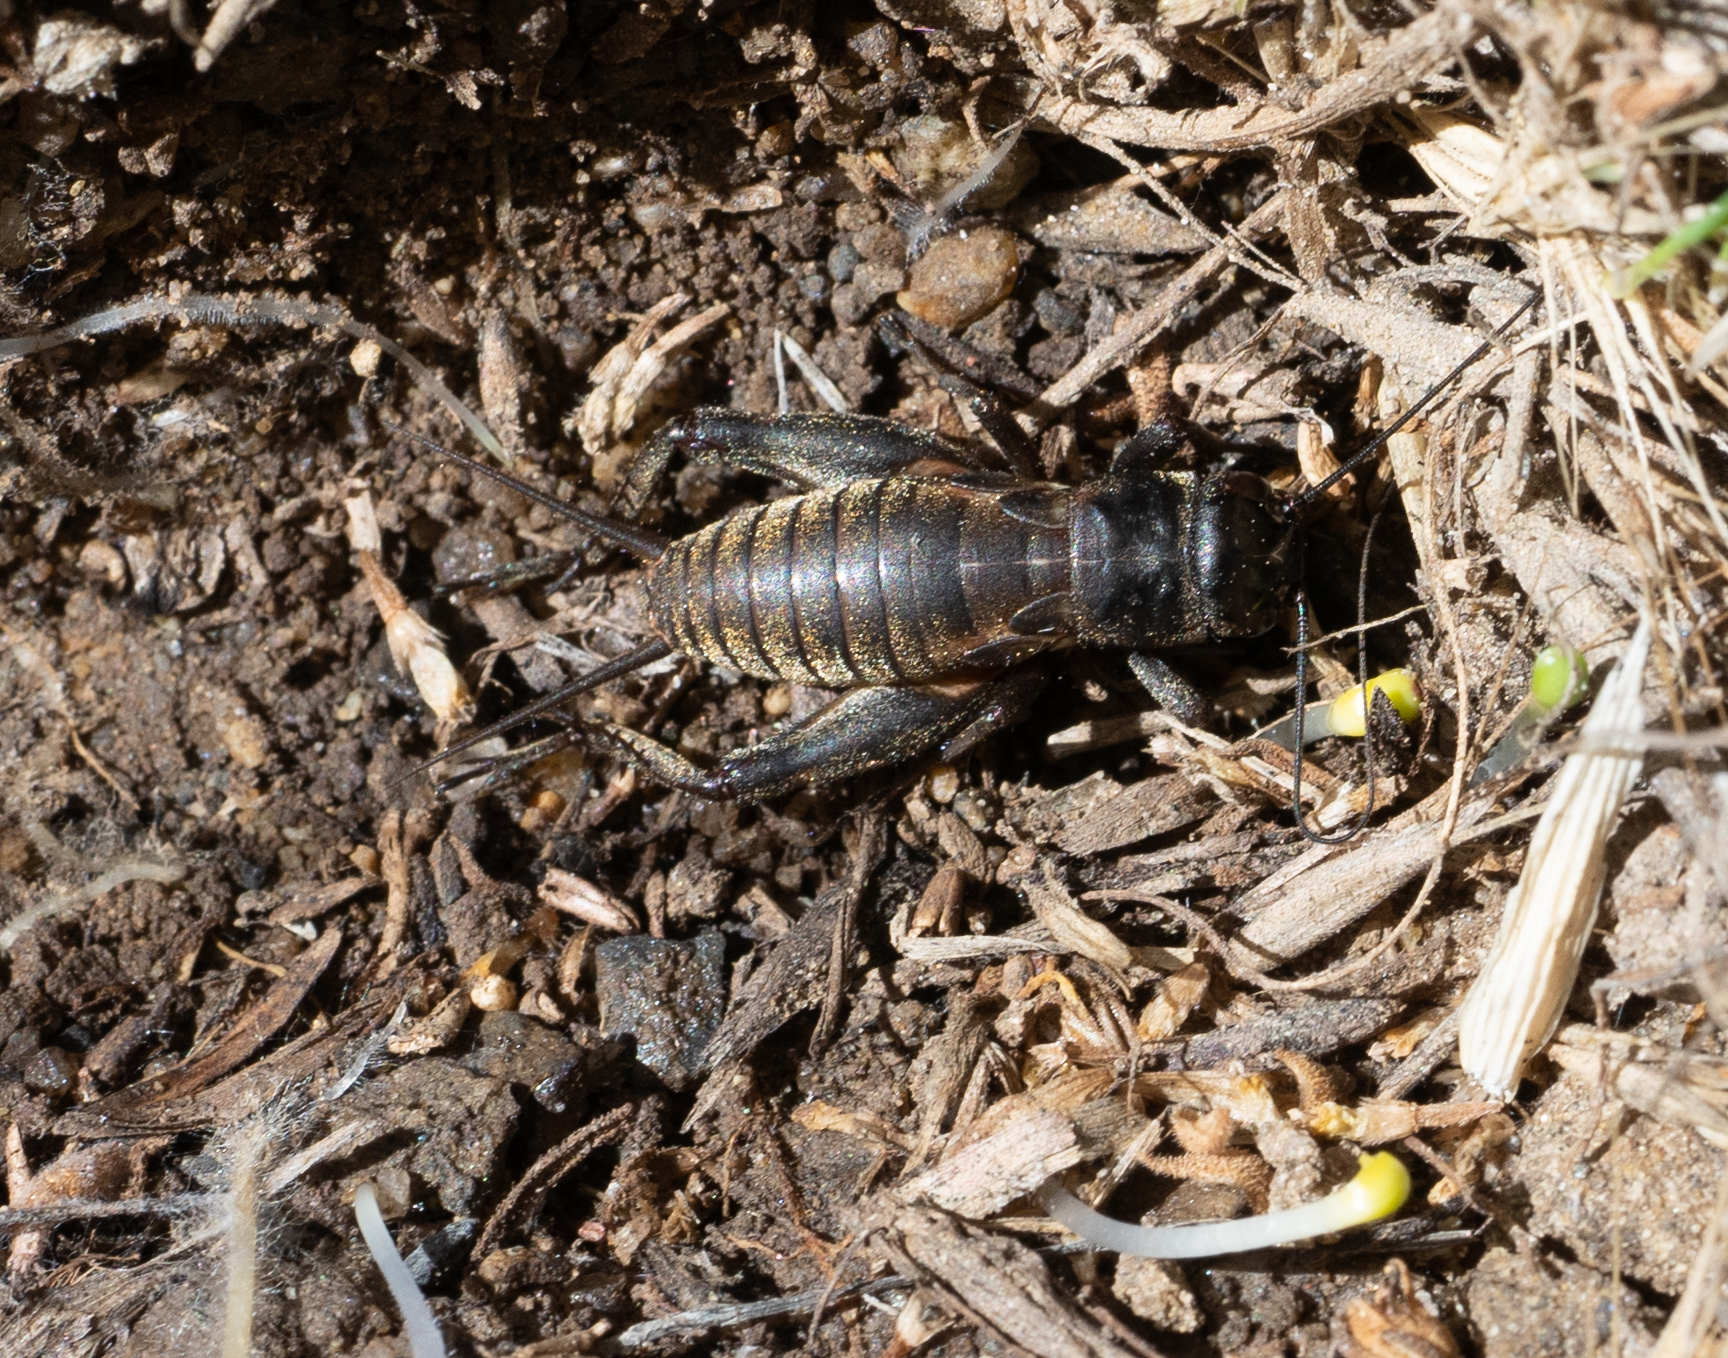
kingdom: Animalia
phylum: Arthropoda
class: Insecta
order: Orthoptera
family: Gryllidae
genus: Gryllus
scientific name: Gryllus
